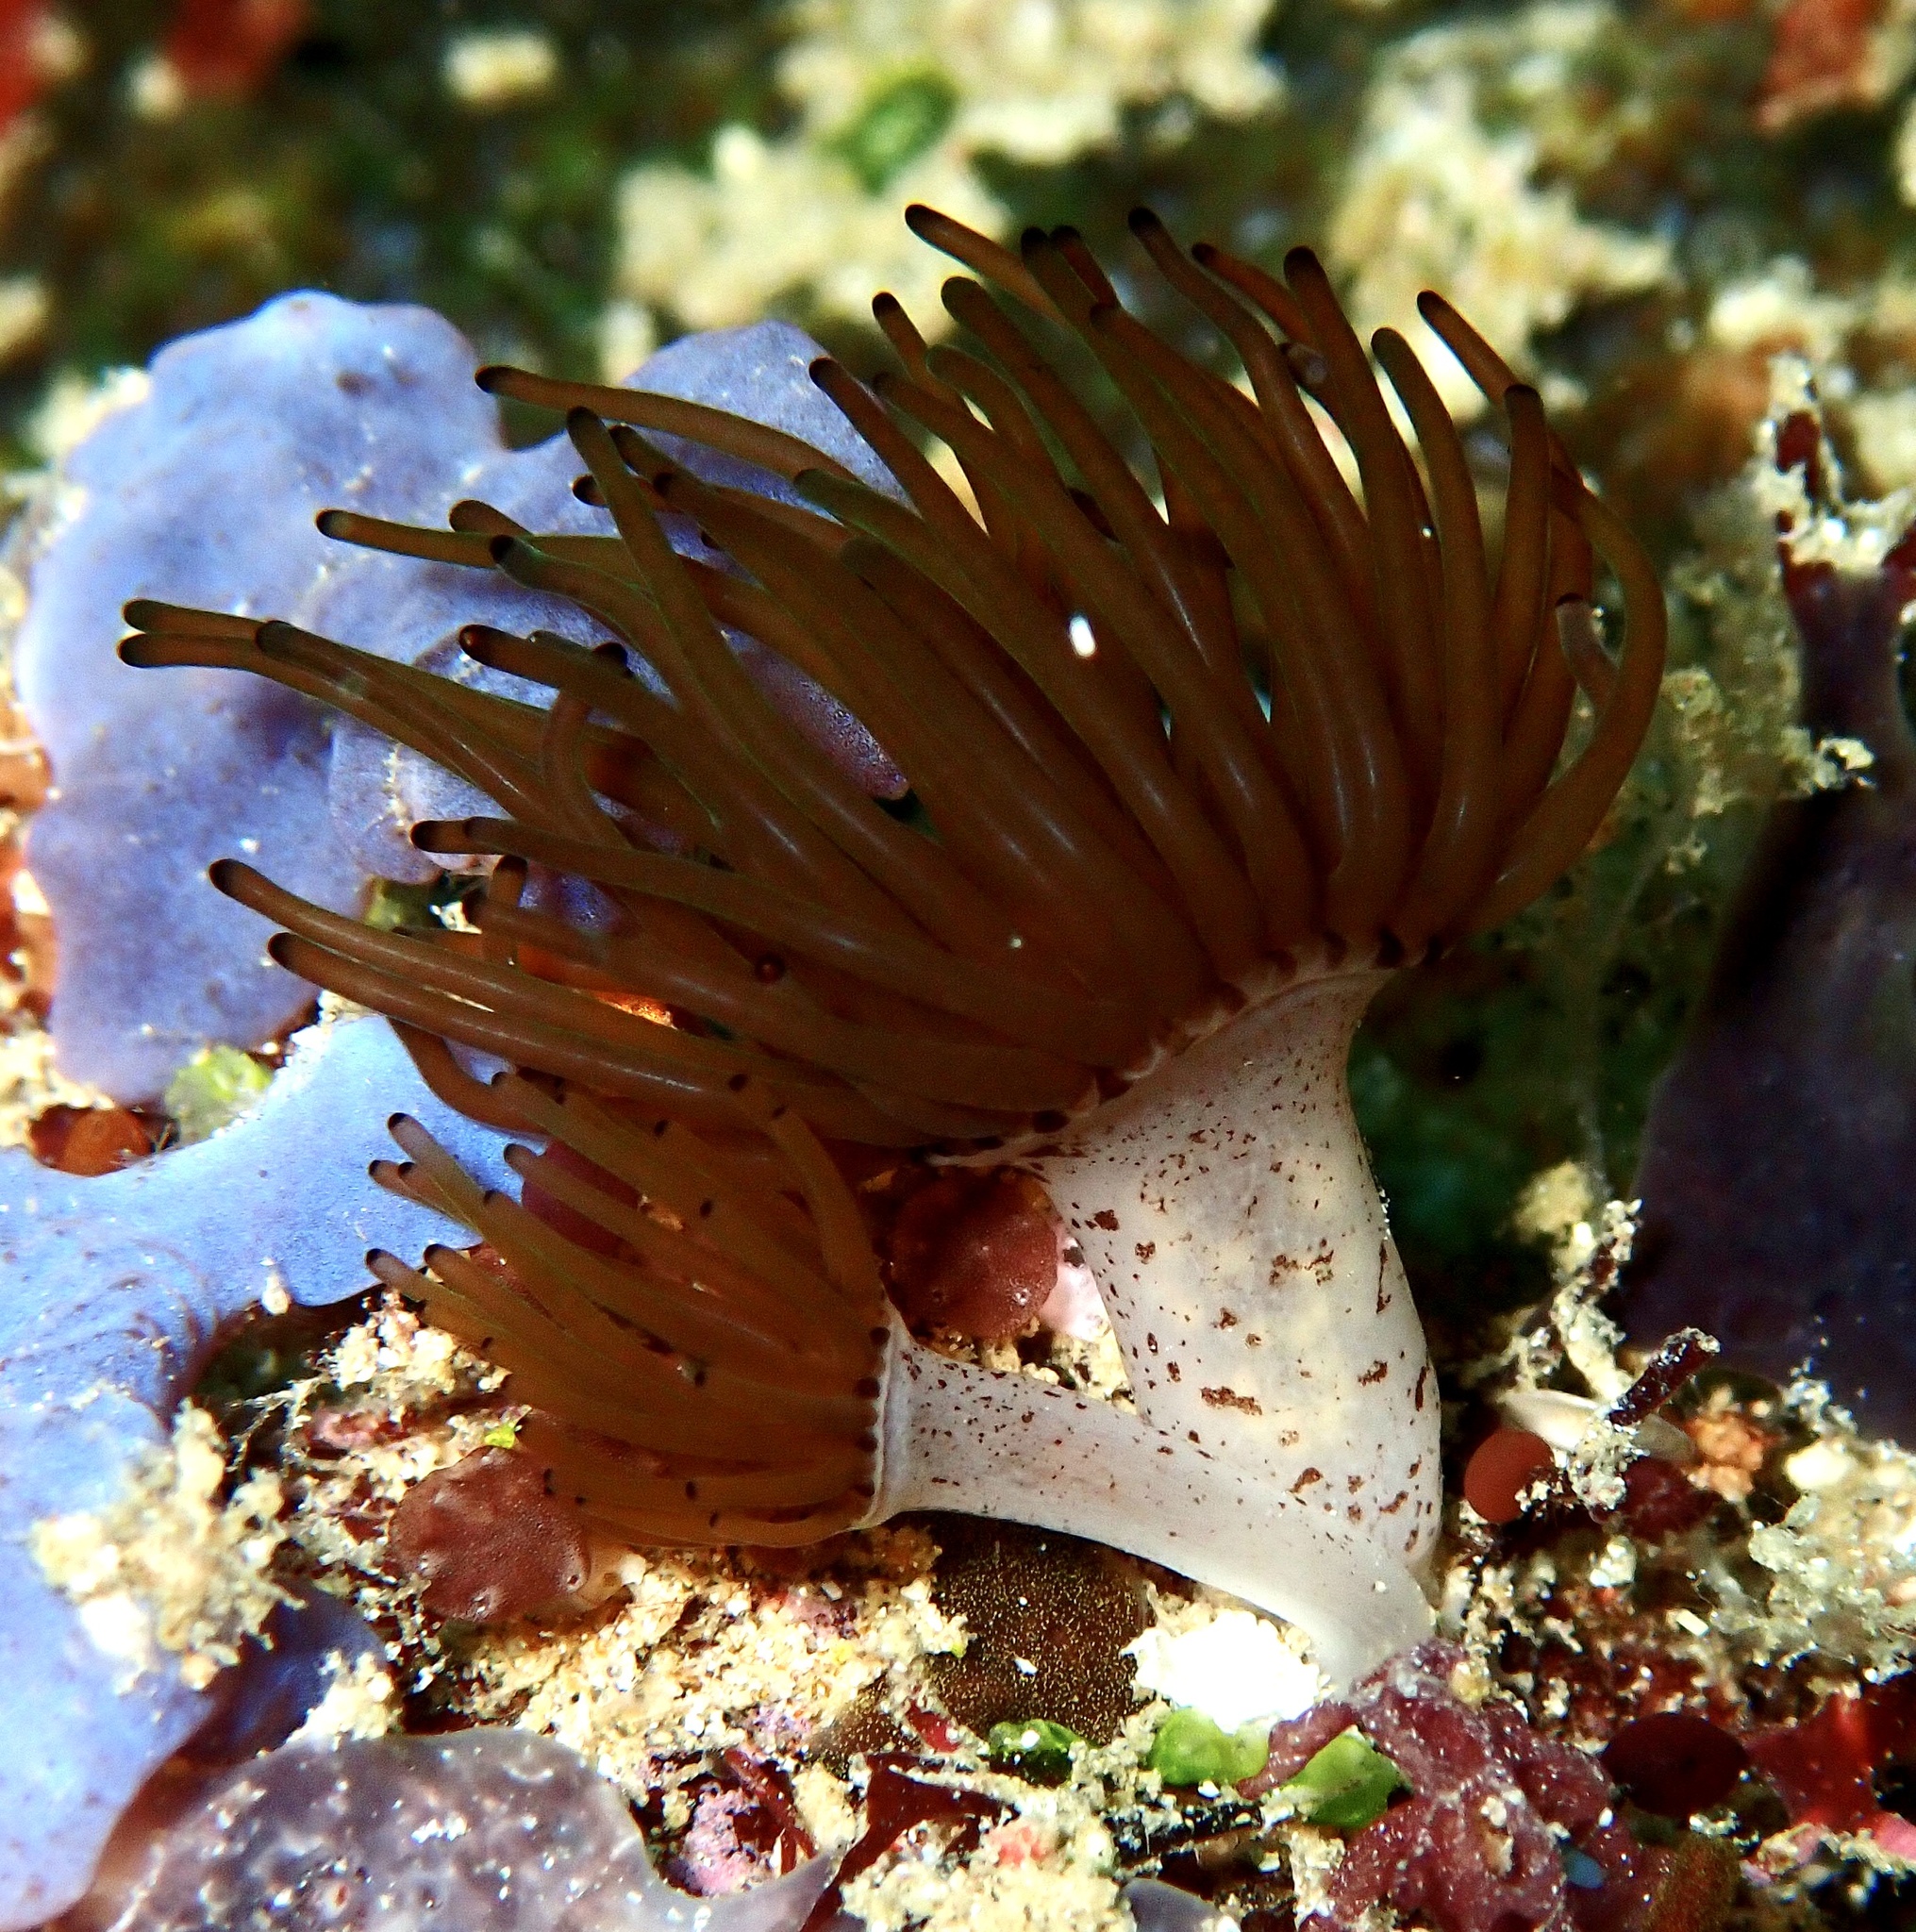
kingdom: Animalia
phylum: Cnidaria
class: Anthozoa
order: Zoantharia
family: Zoanthidae
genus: Acrozoanthus
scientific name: Acrozoanthus australiae
